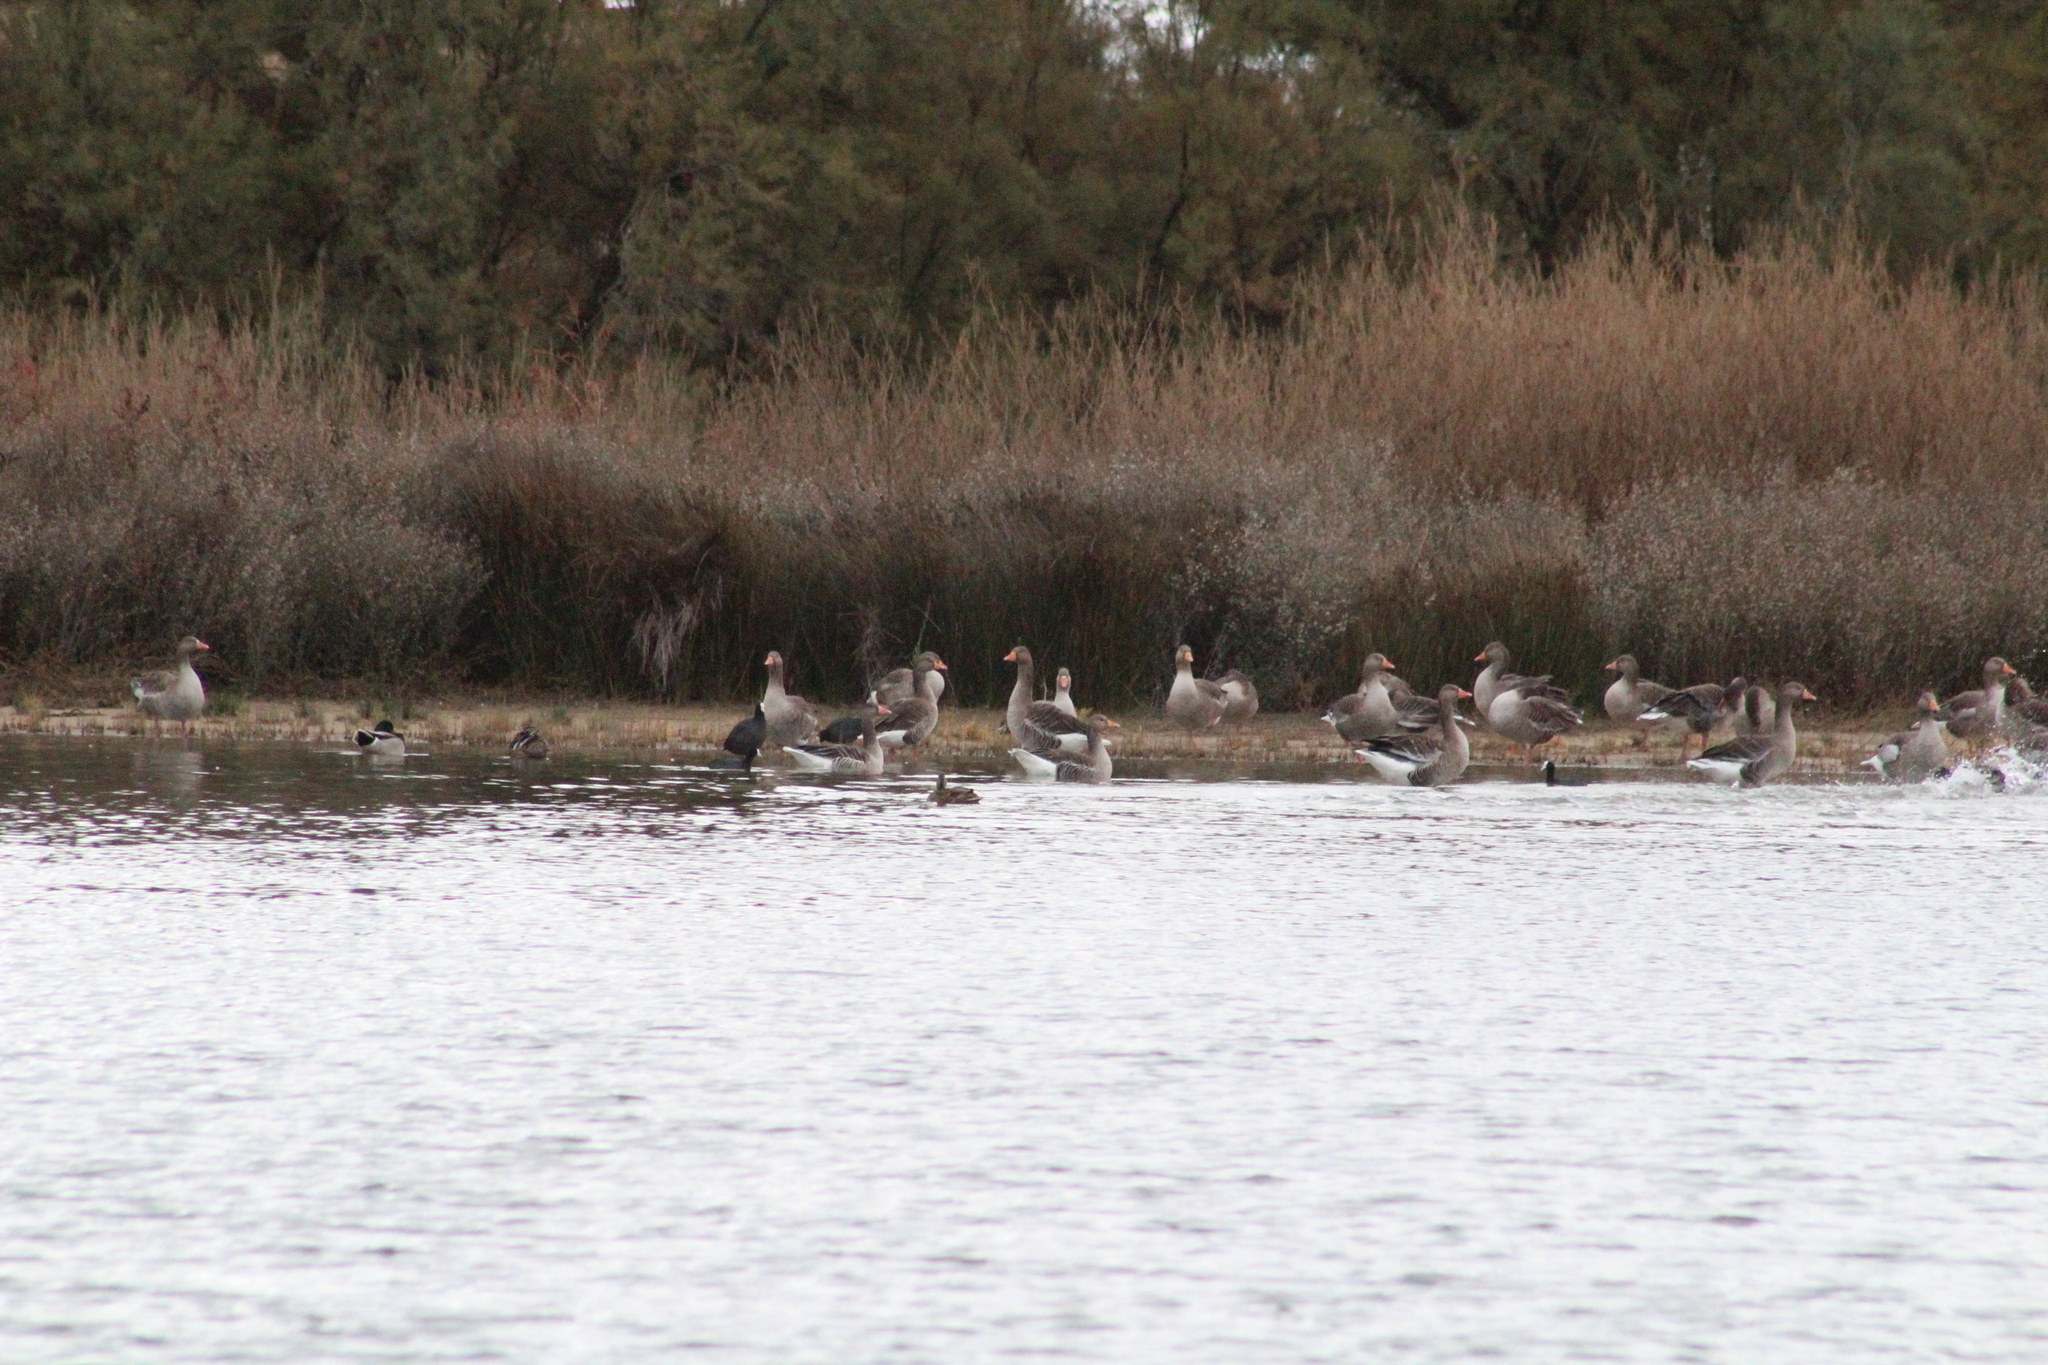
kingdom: Animalia
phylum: Chordata
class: Aves
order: Anseriformes
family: Anatidae
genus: Anser
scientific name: Anser anser
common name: Greylag goose
